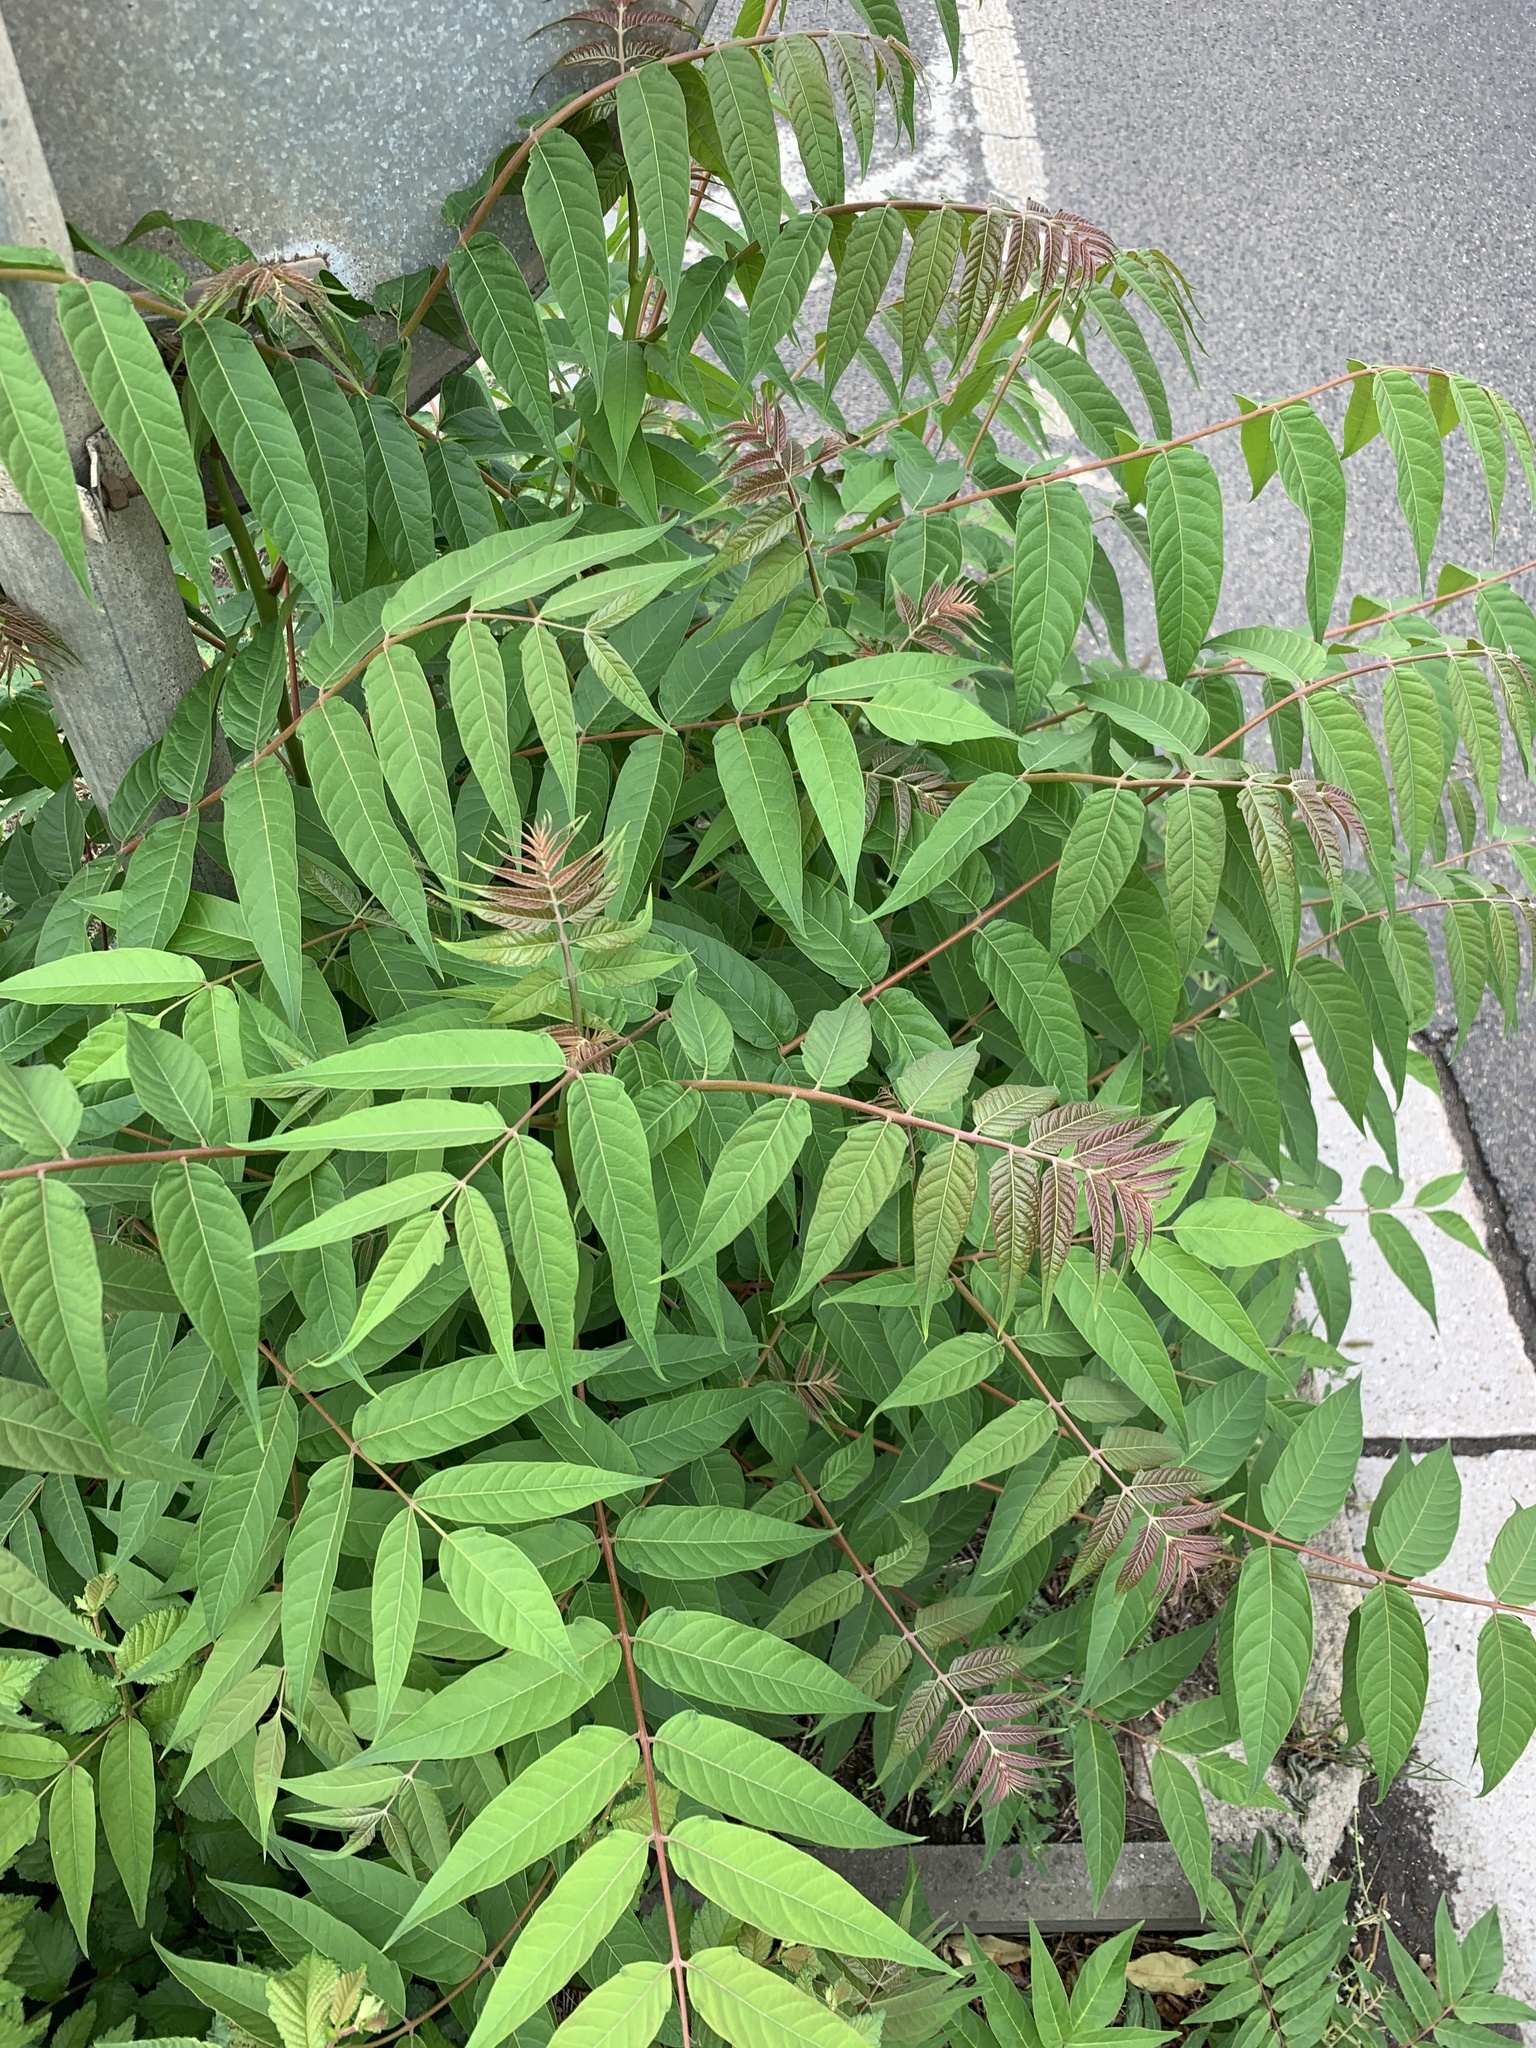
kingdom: Plantae
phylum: Tracheophyta
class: Magnoliopsida
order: Sapindales
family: Simaroubaceae
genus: Ailanthus
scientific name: Ailanthus altissima
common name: Tree-of-heaven
